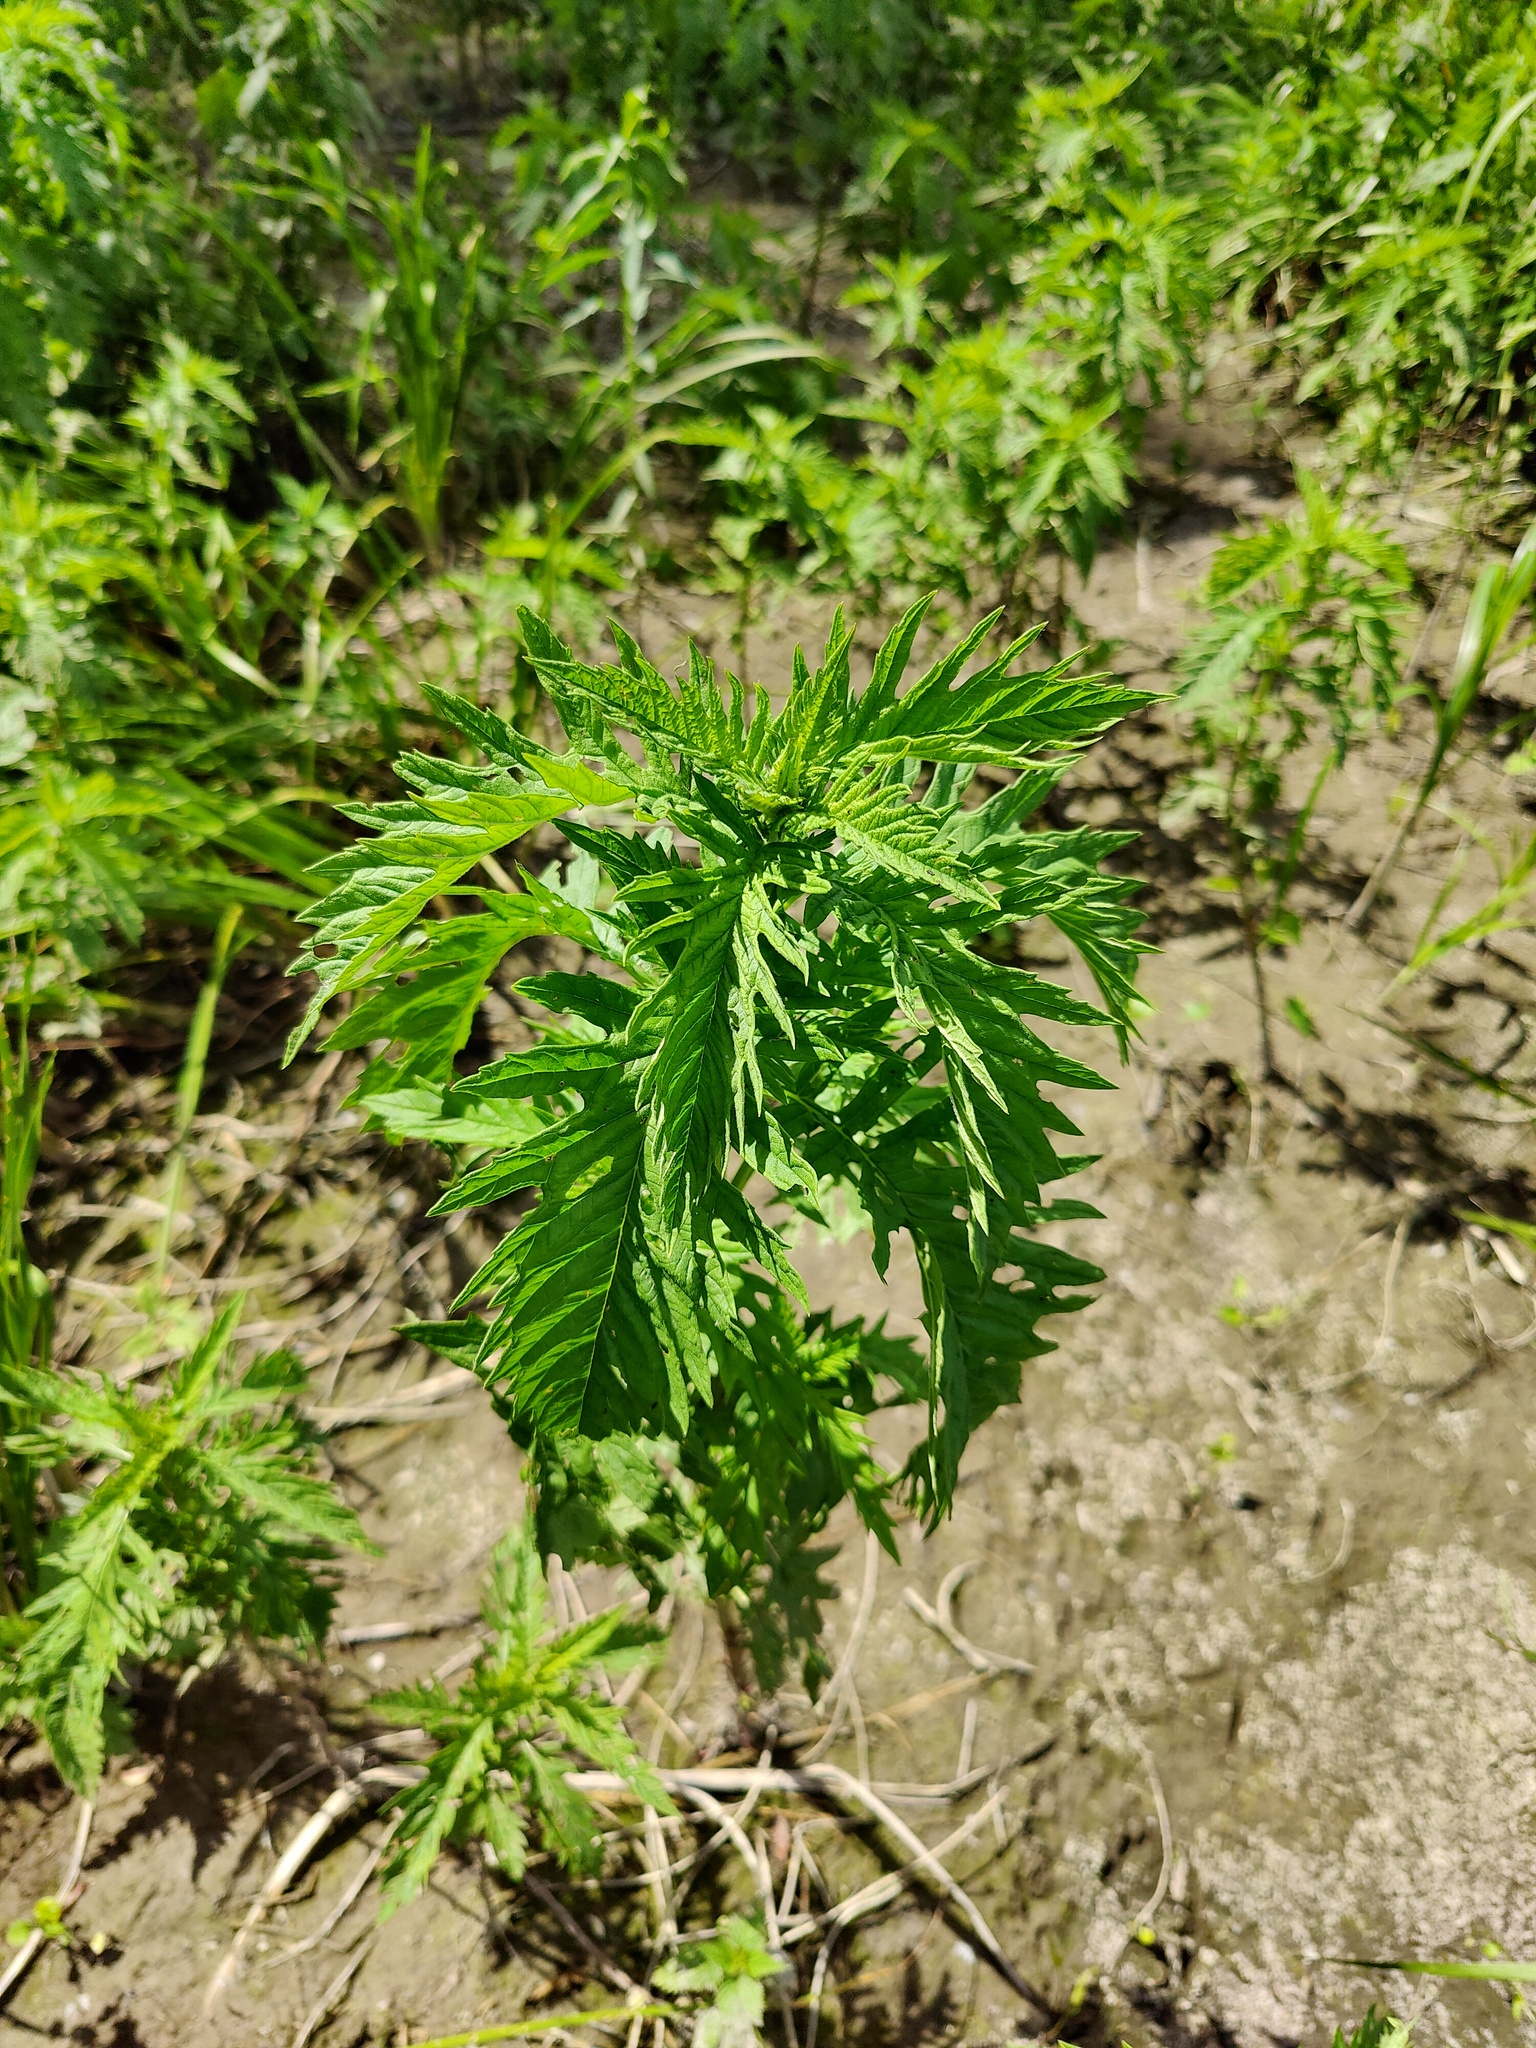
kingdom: Plantae
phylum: Tracheophyta
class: Magnoliopsida
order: Lamiales
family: Lamiaceae
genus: Lycopus
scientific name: Lycopus exaltatus
